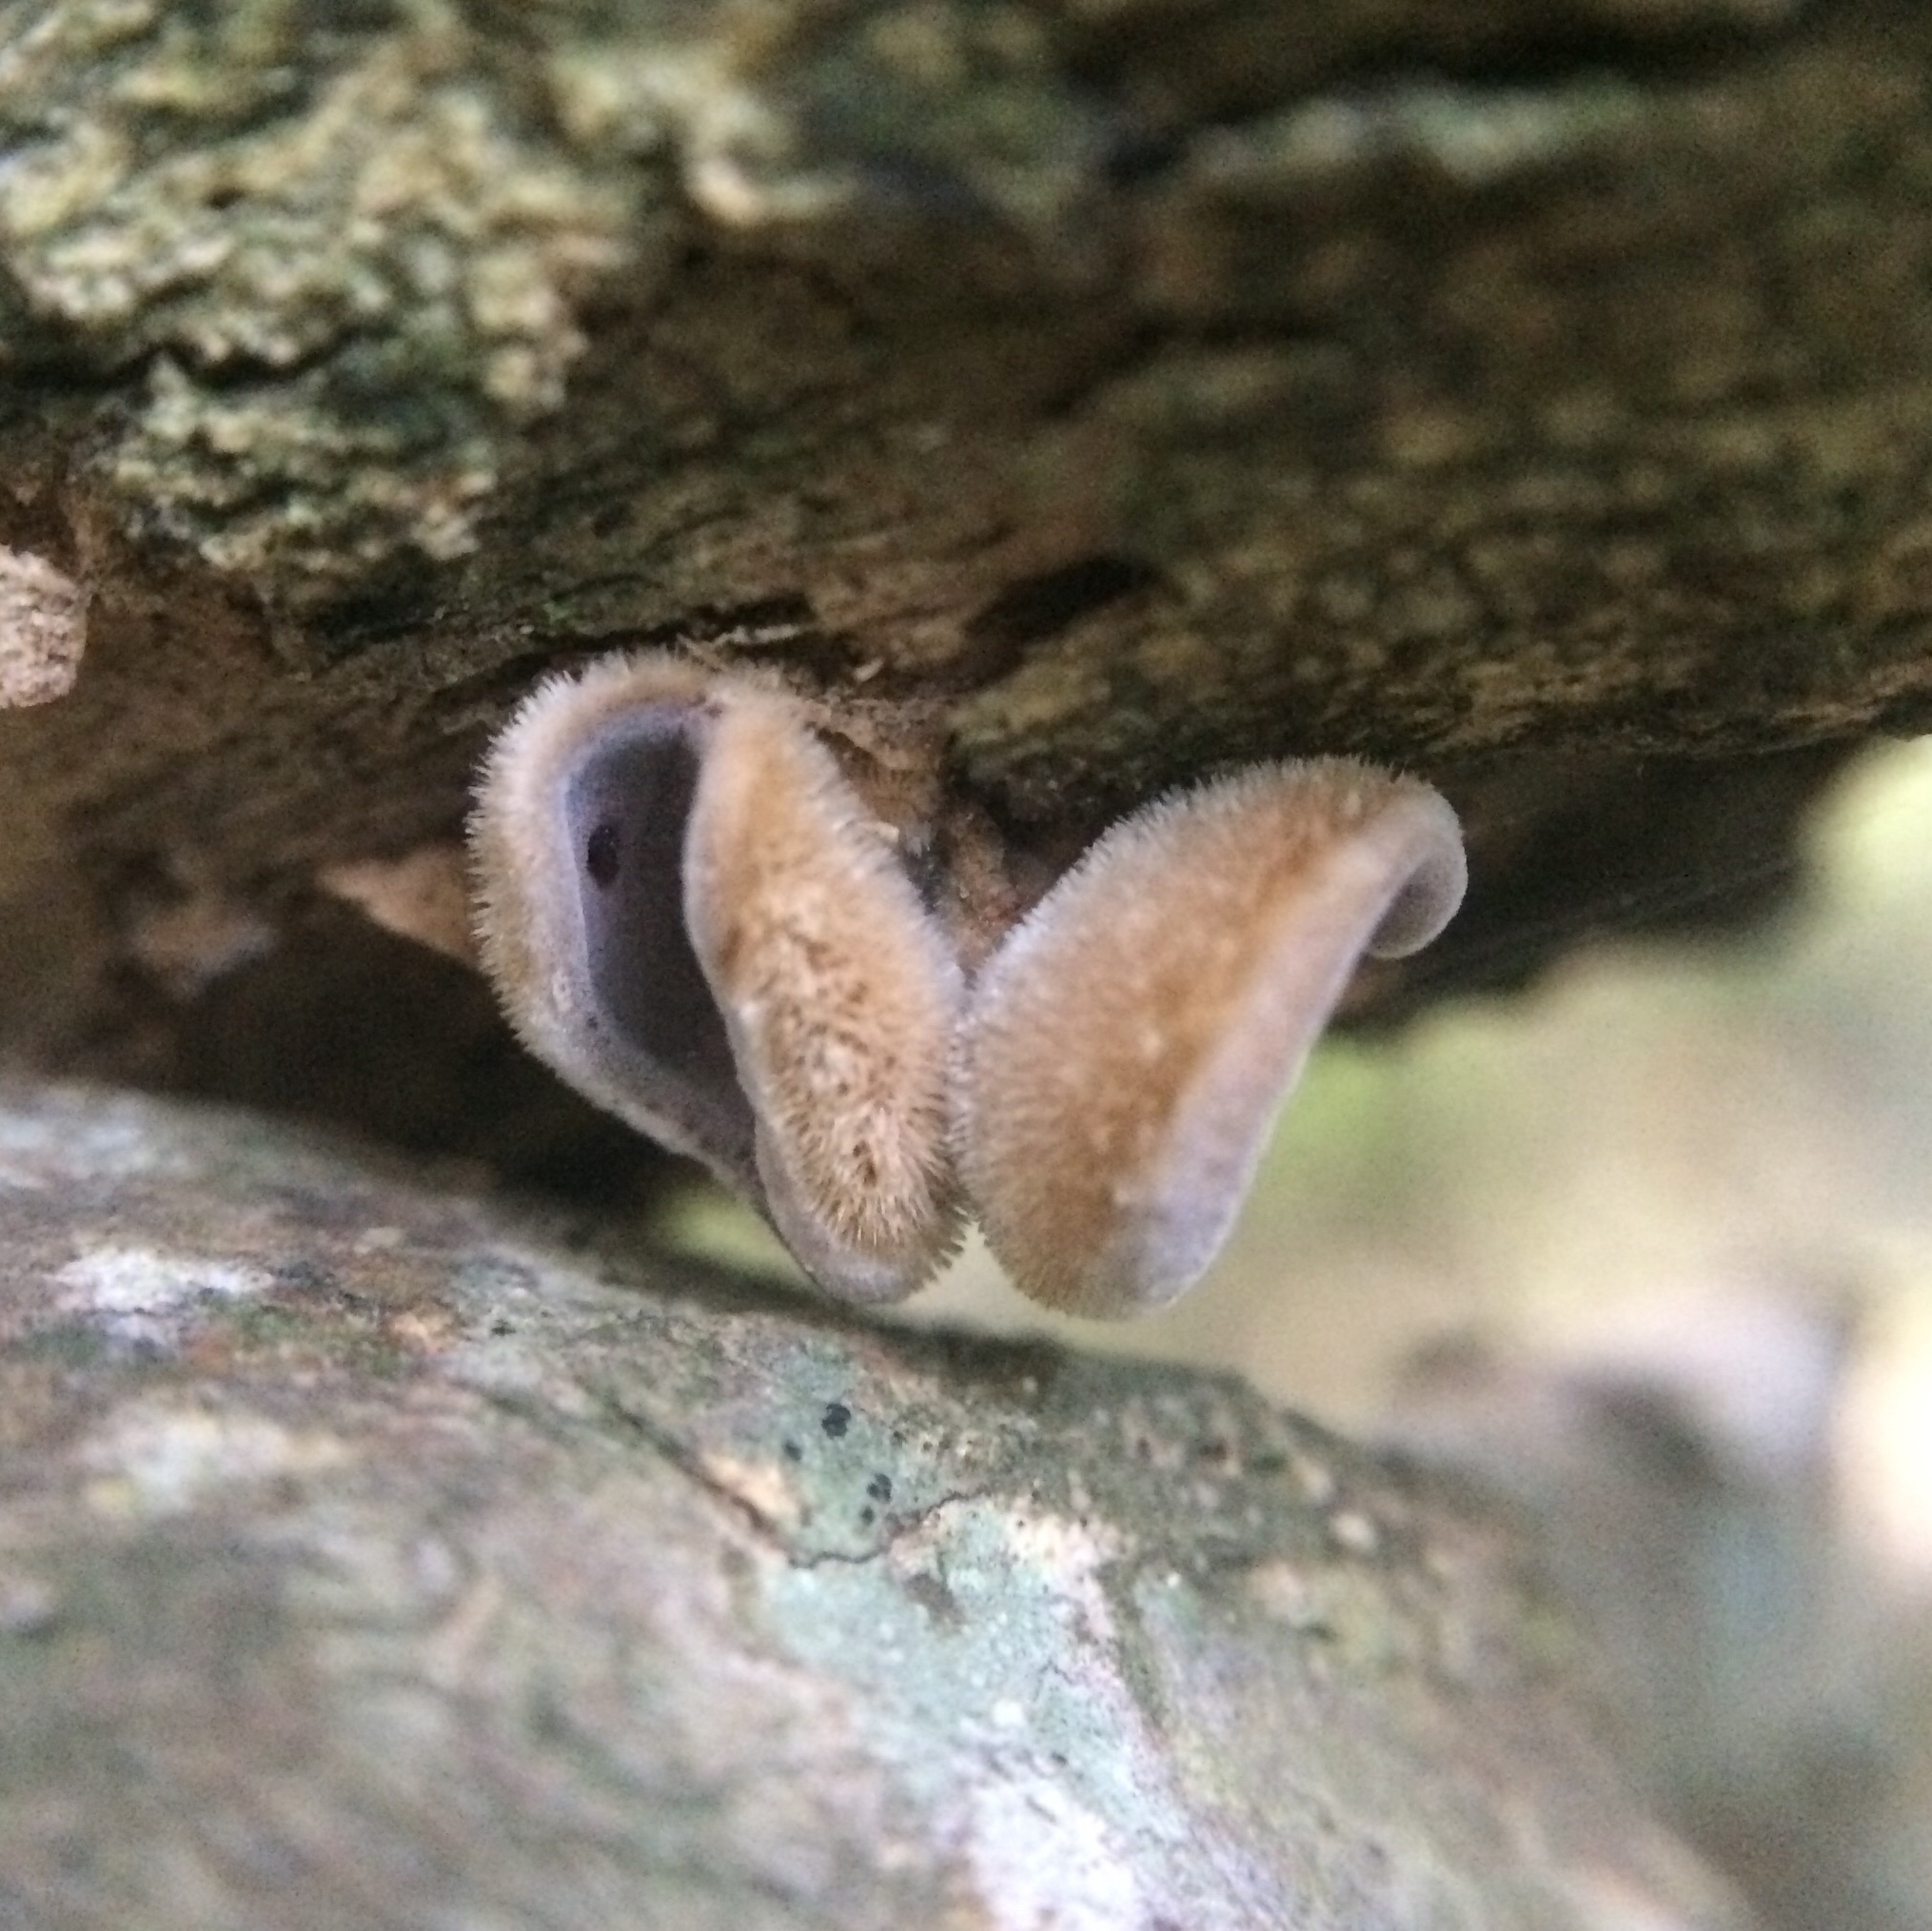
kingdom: Fungi
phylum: Basidiomycota
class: Agaricomycetes
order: Auriculariales
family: Auriculariaceae
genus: Auricularia
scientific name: Auricularia cornea
